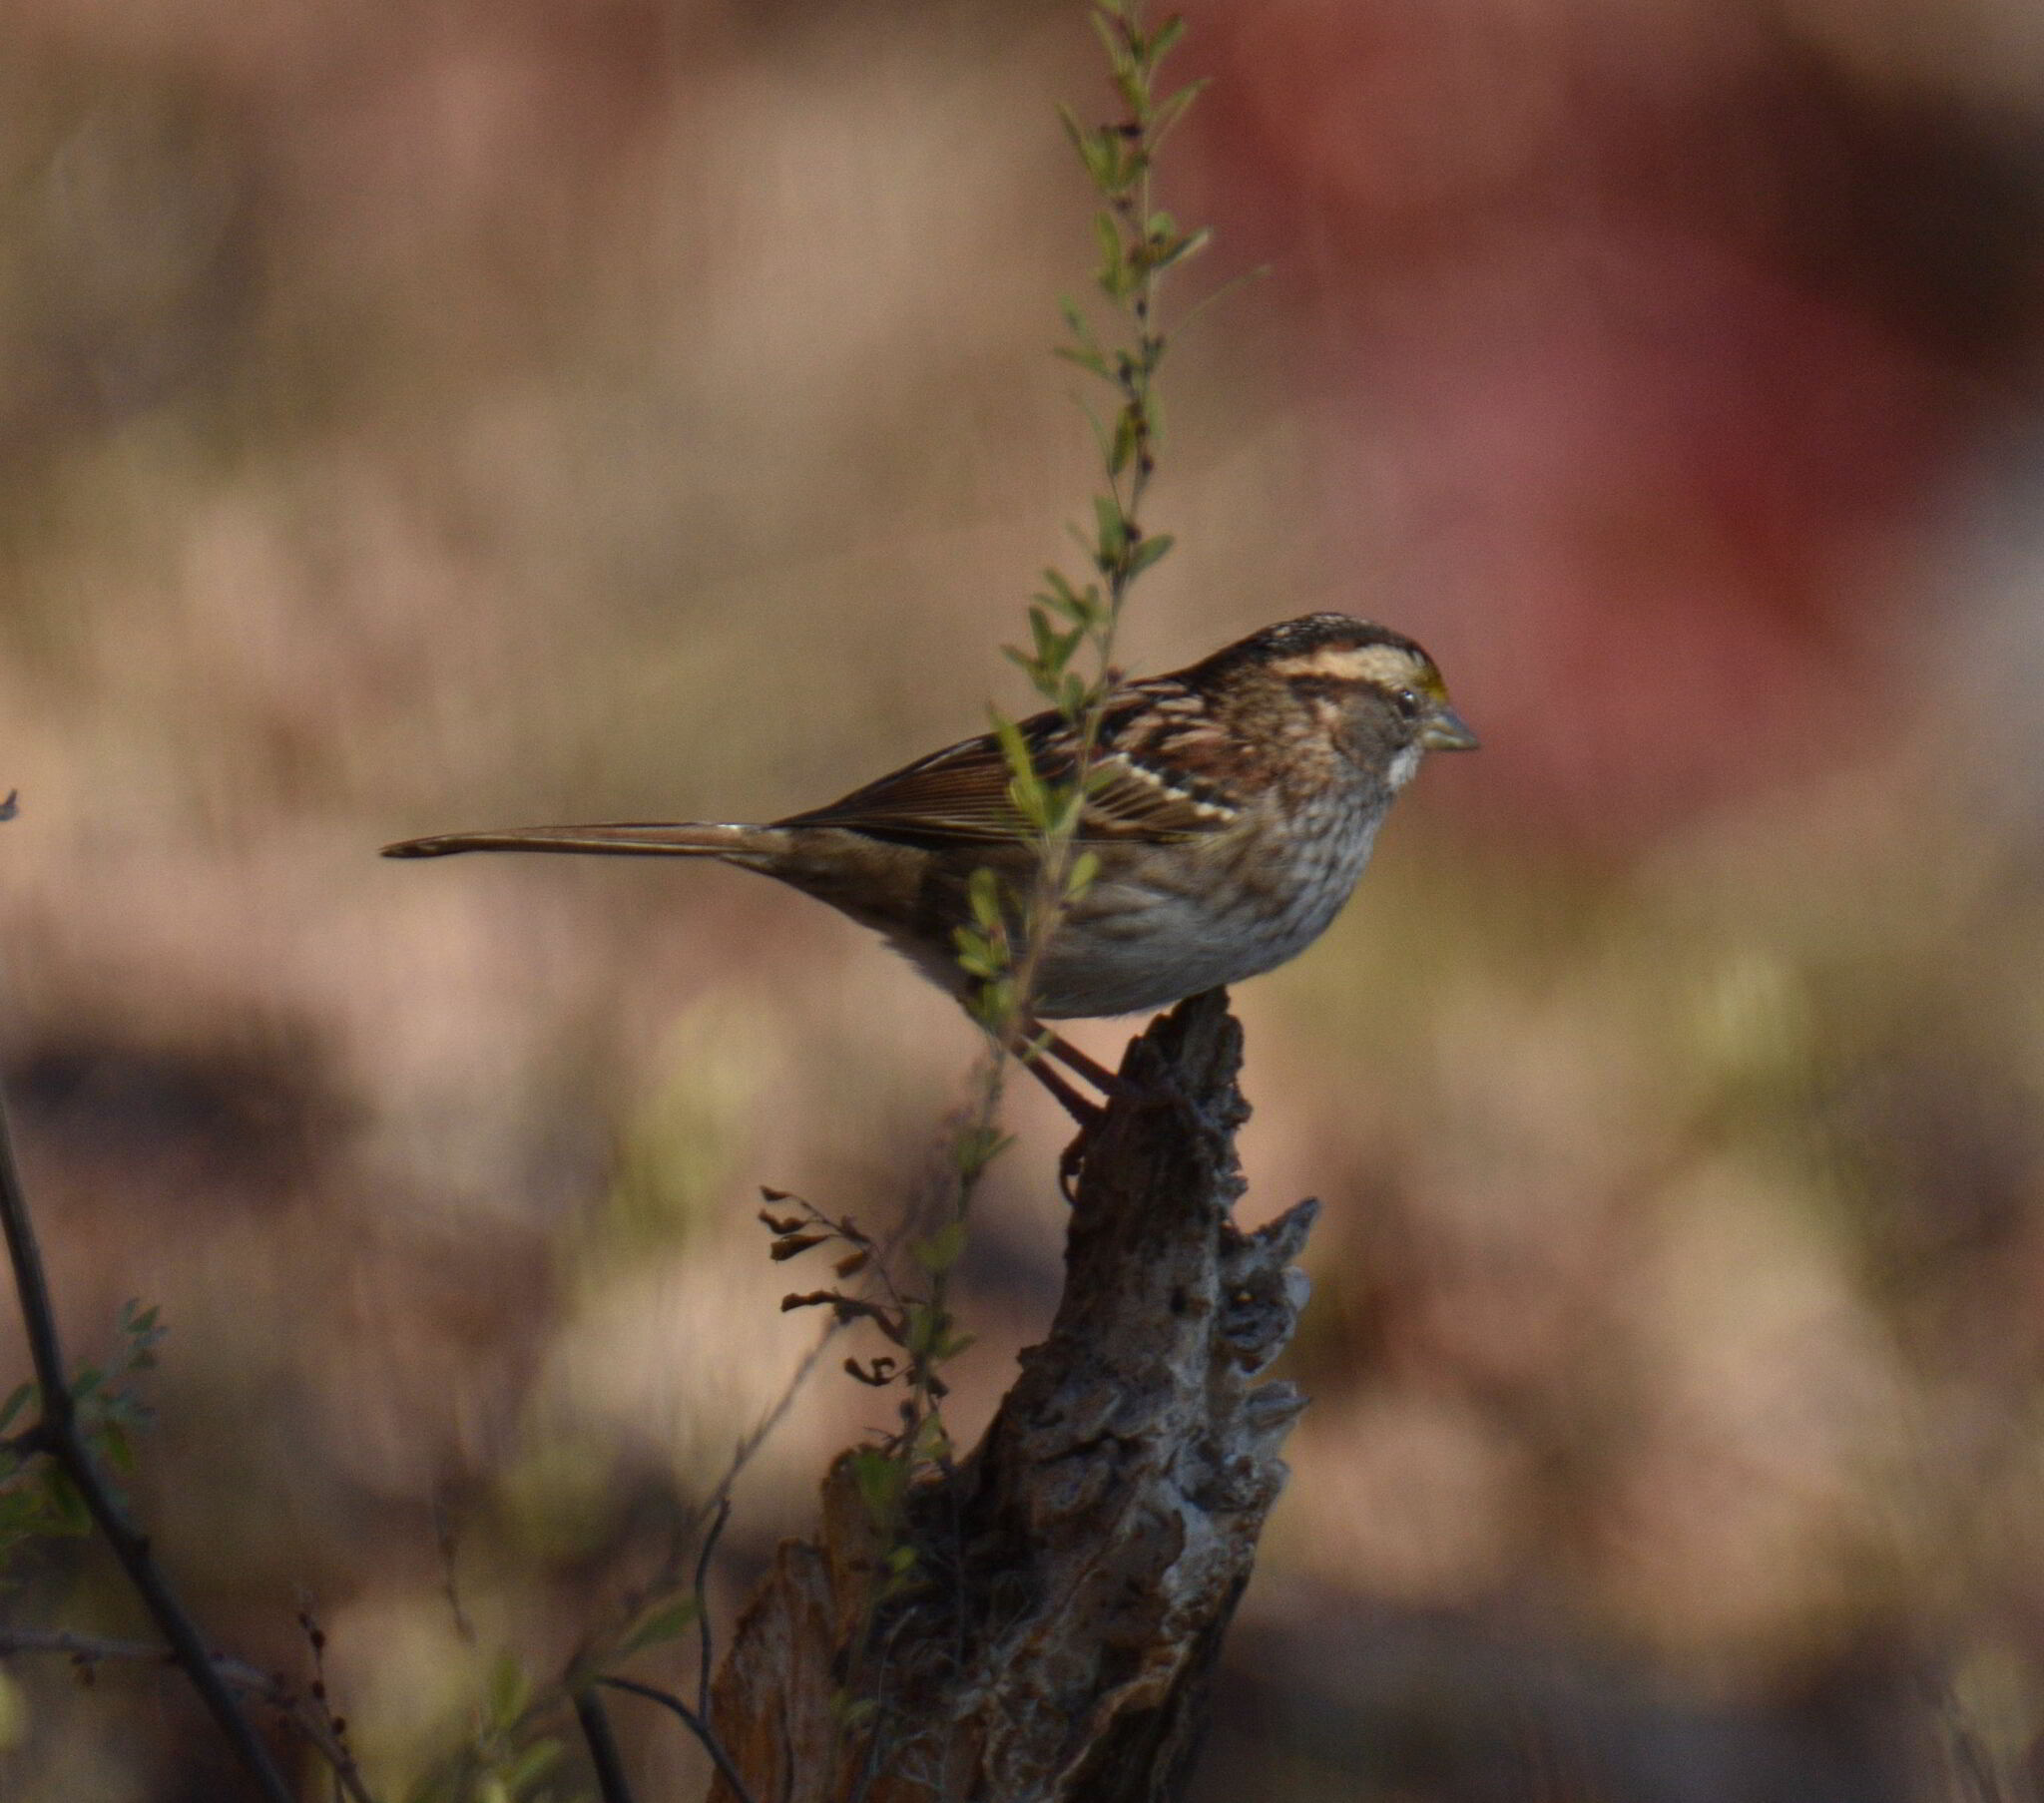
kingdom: Animalia
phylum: Chordata
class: Aves
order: Passeriformes
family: Passerellidae
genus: Zonotrichia
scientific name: Zonotrichia albicollis
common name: White-throated sparrow
